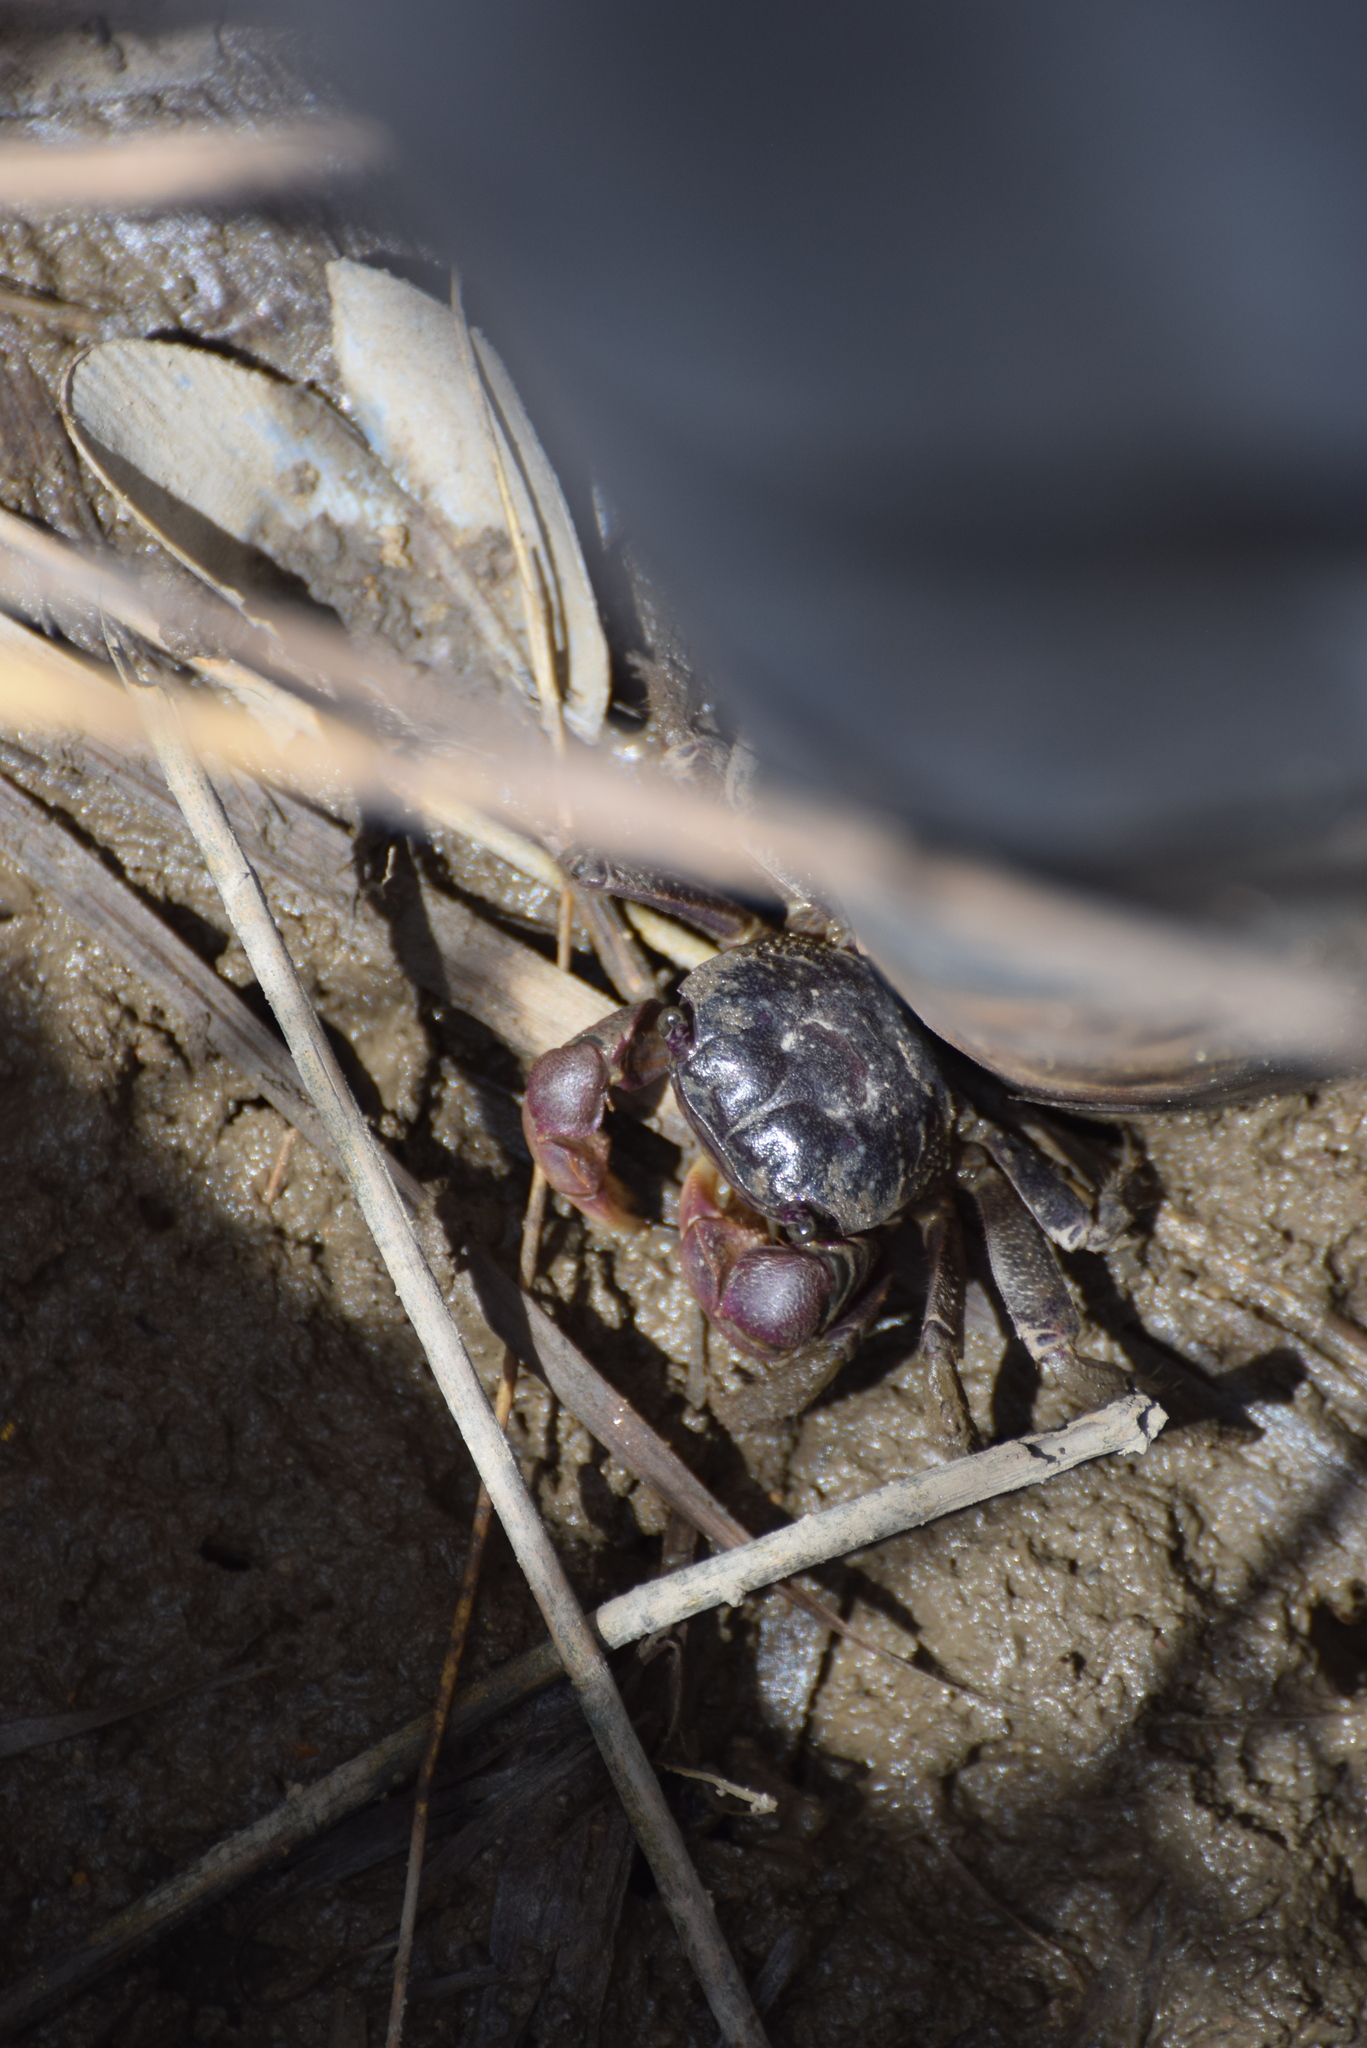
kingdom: Animalia
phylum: Arthropoda
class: Malacostraca
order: Decapoda
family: Sesarmidae
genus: Sesarma
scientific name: Sesarma reticulatum
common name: Heavy marsh crab
